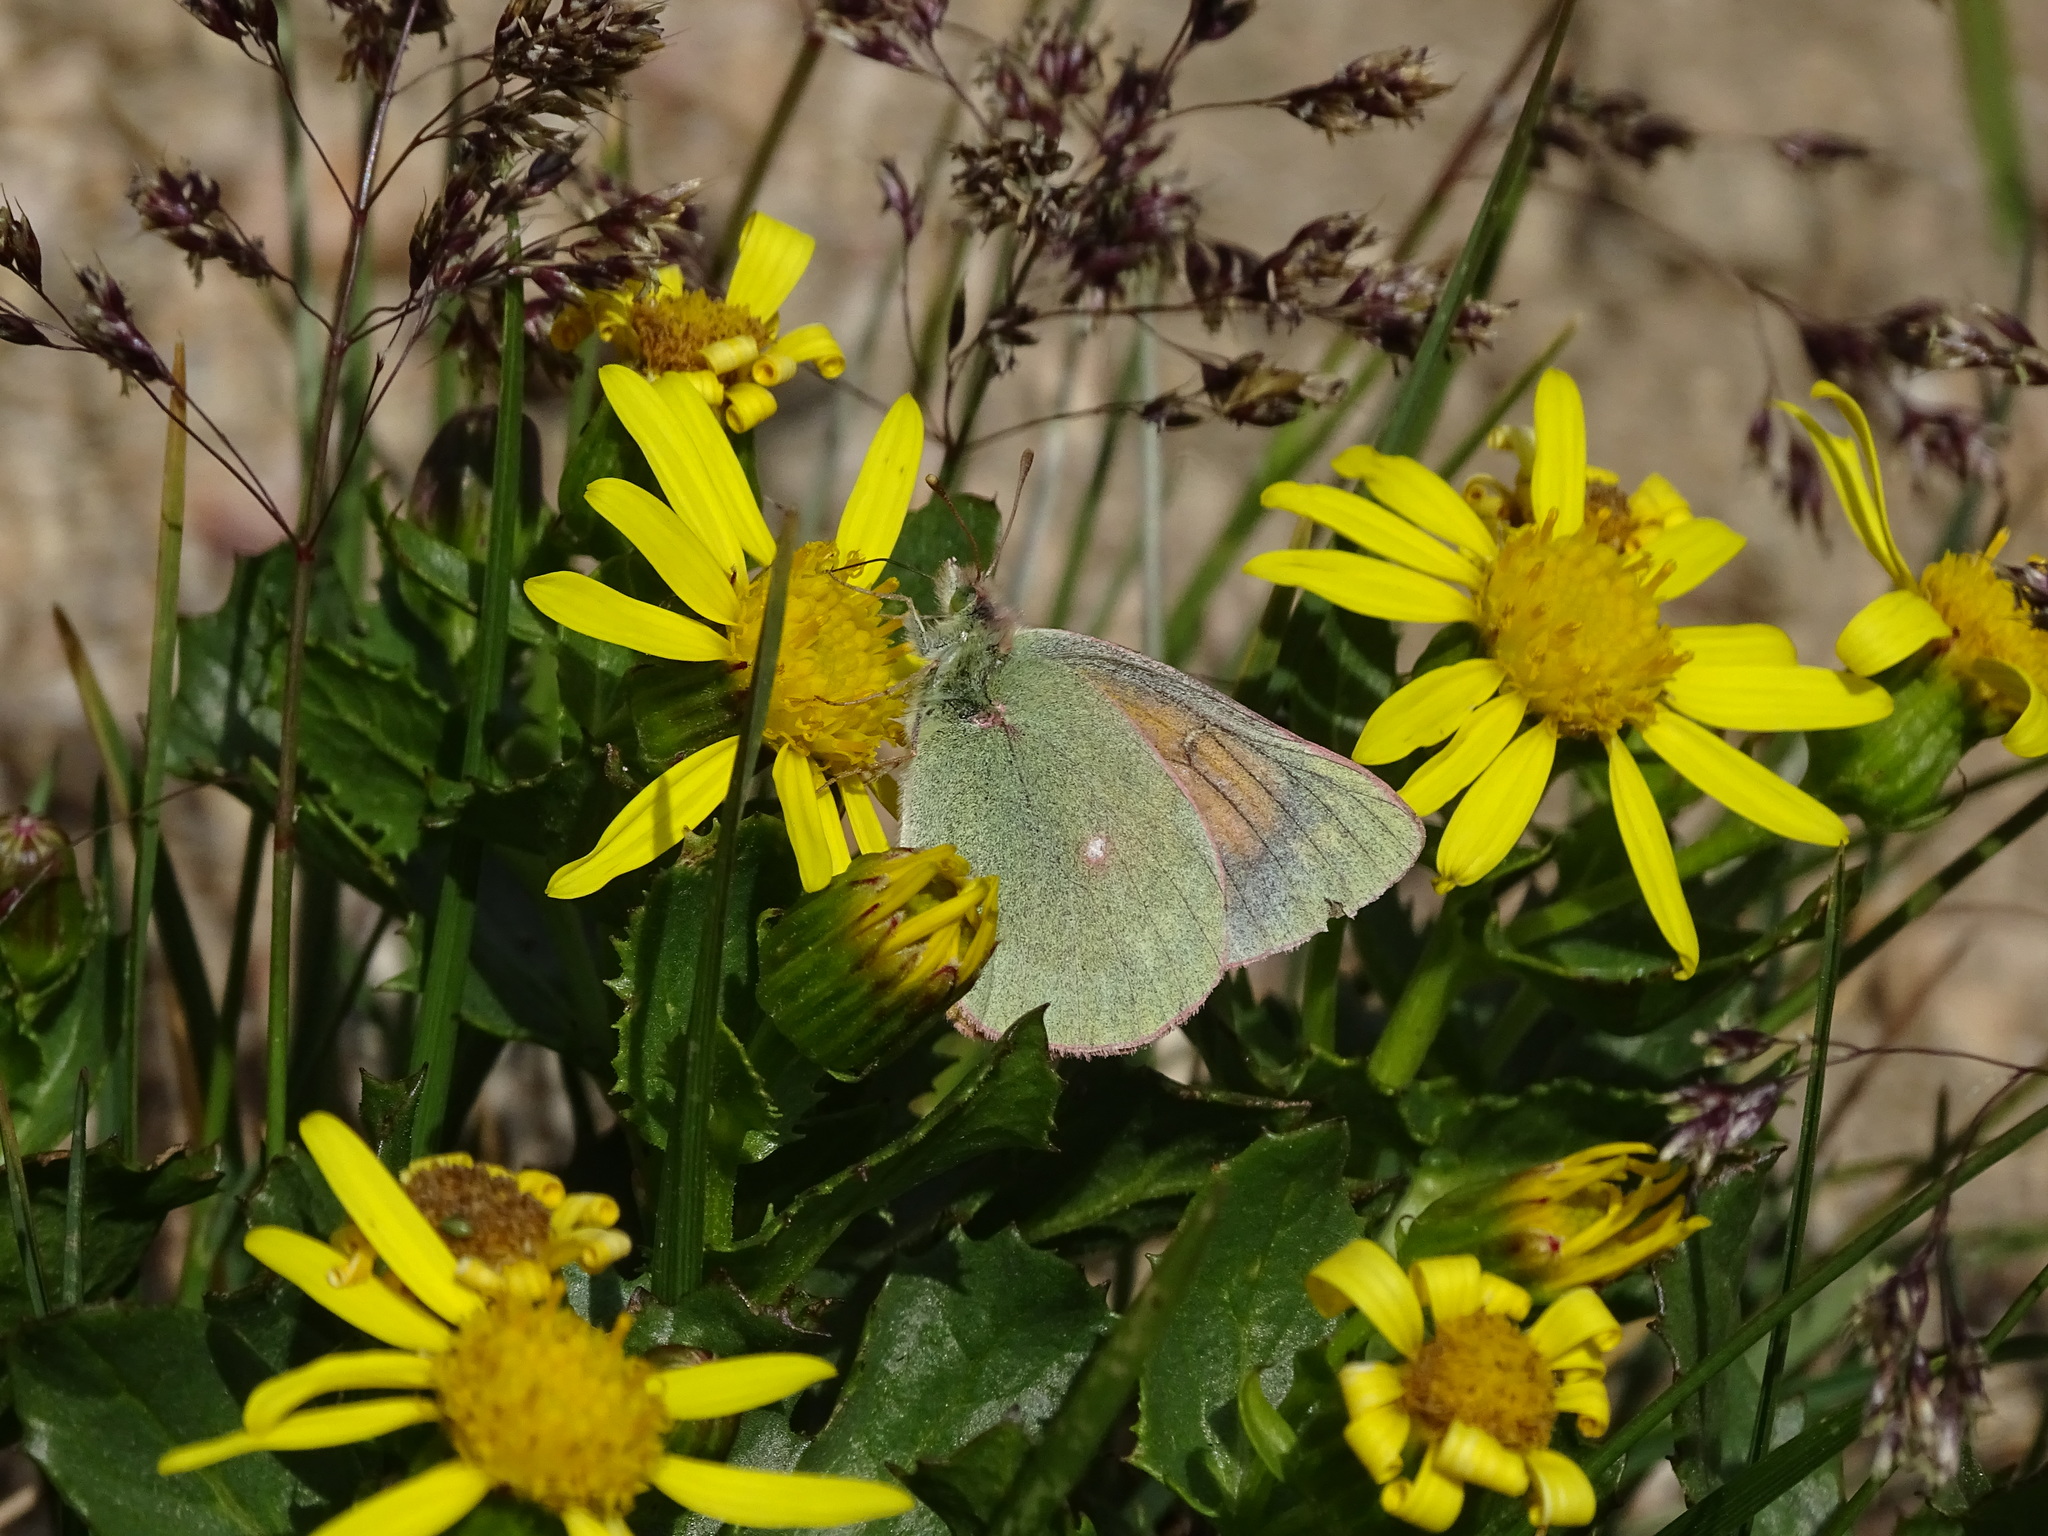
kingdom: Animalia
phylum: Arthropoda
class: Insecta
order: Lepidoptera
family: Pieridae
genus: Colias
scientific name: Colias meadii
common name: Mead's sulphur
